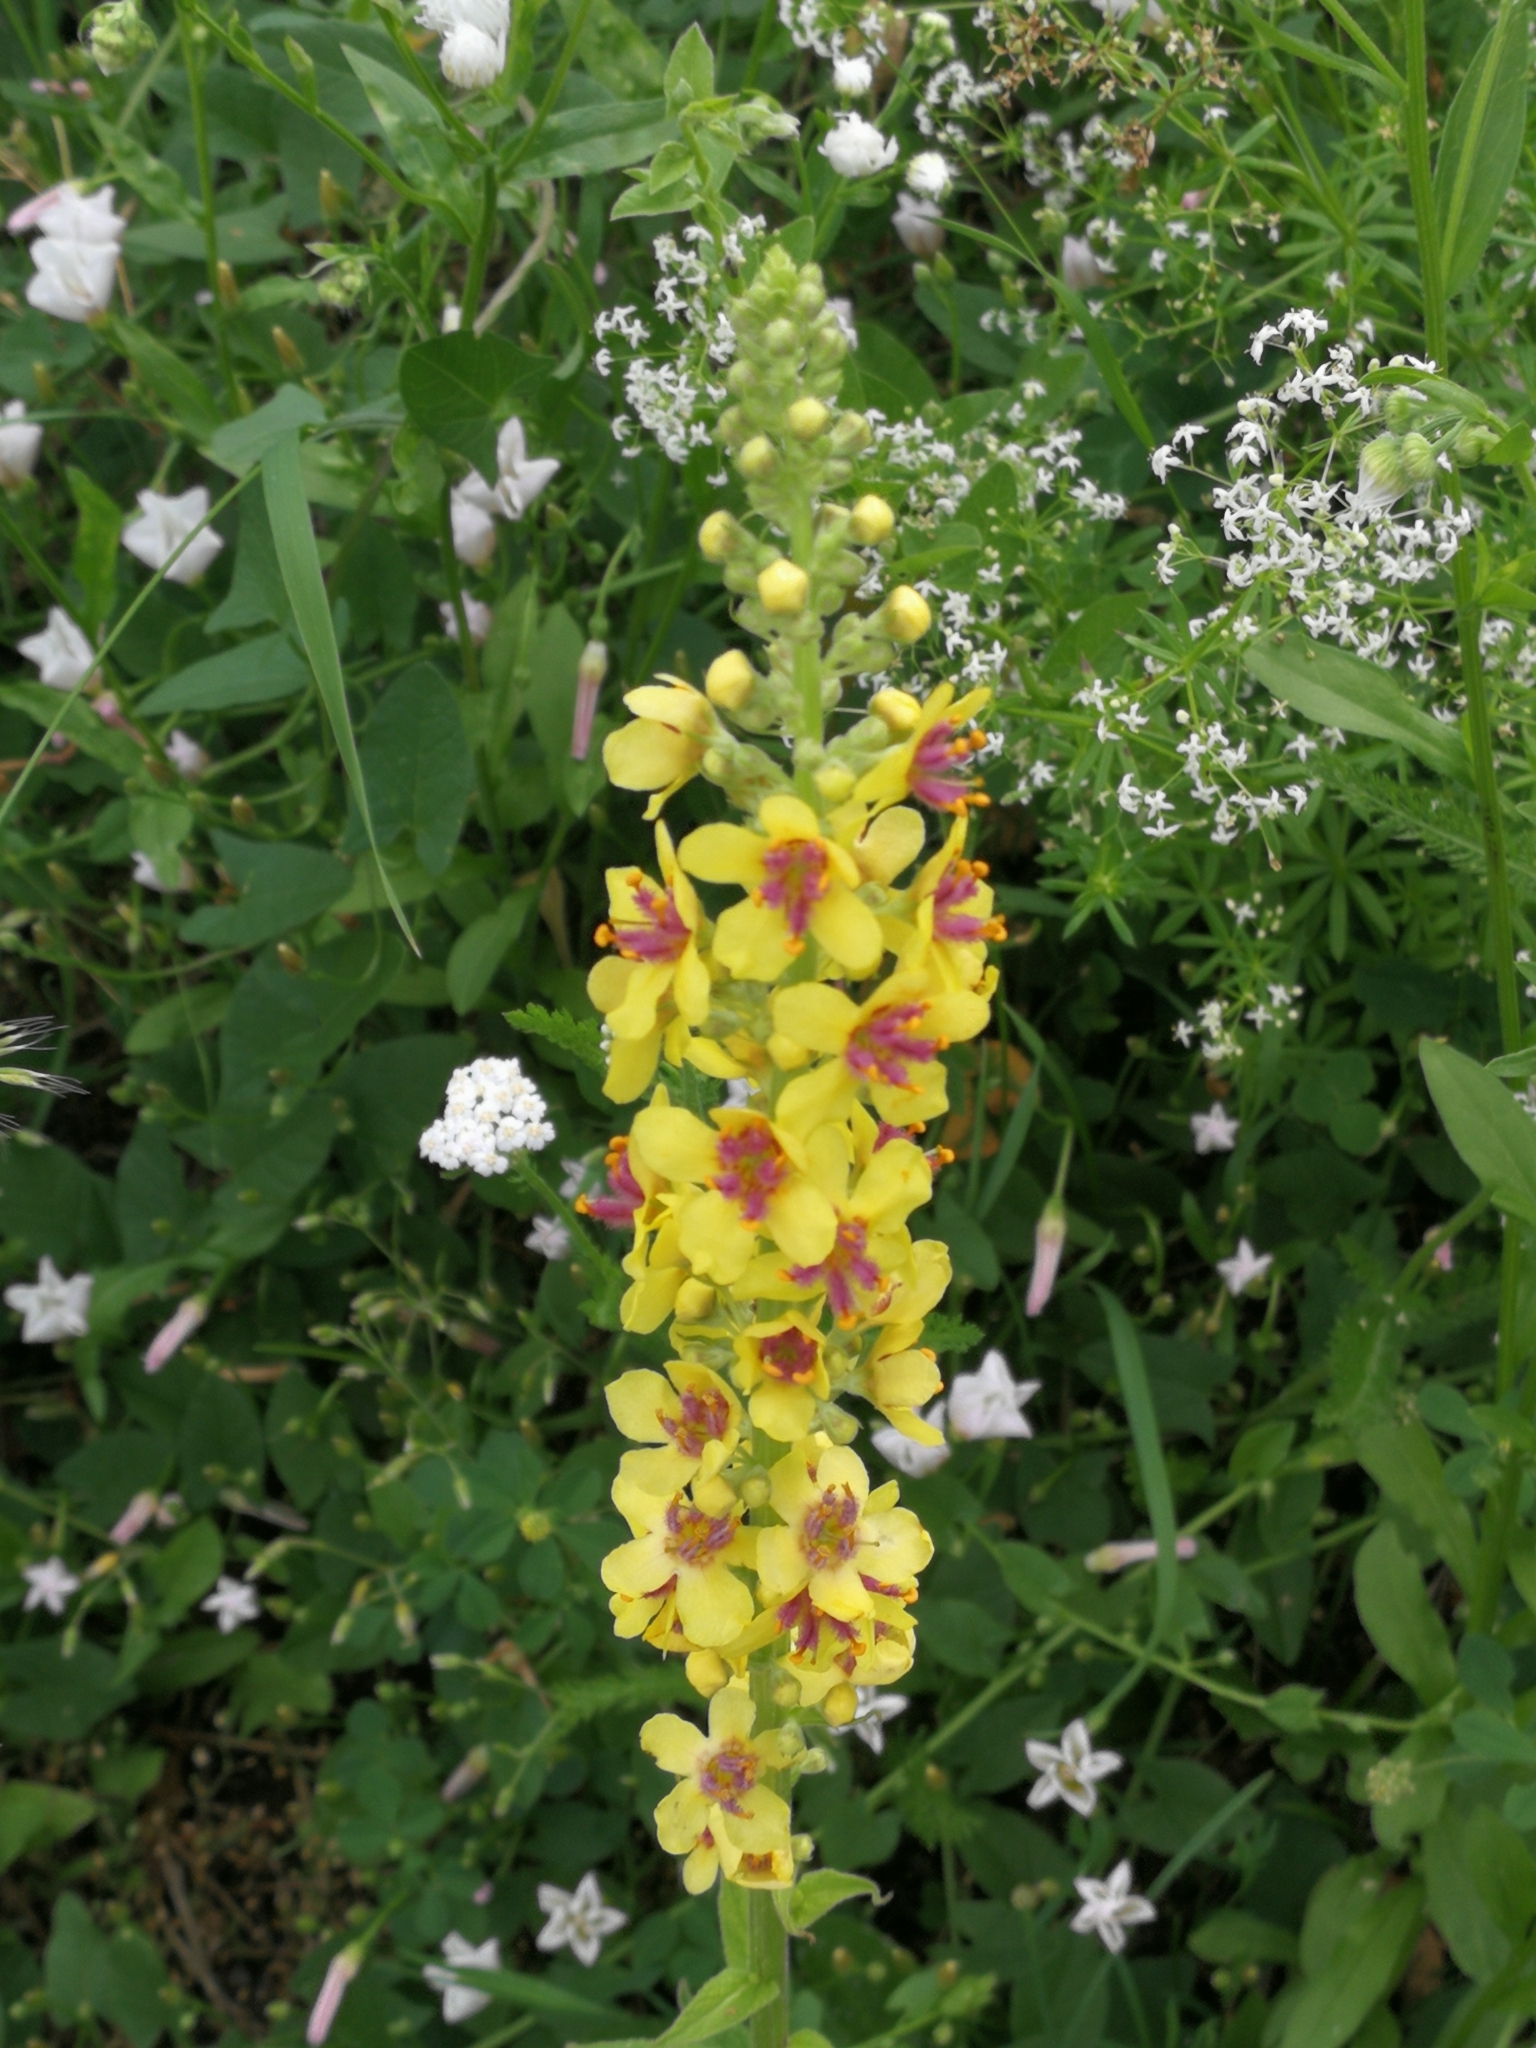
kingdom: Plantae
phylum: Tracheophyta
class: Magnoliopsida
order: Lamiales
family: Scrophulariaceae
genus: Verbascum
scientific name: Verbascum nigrum
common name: Dark mullein
